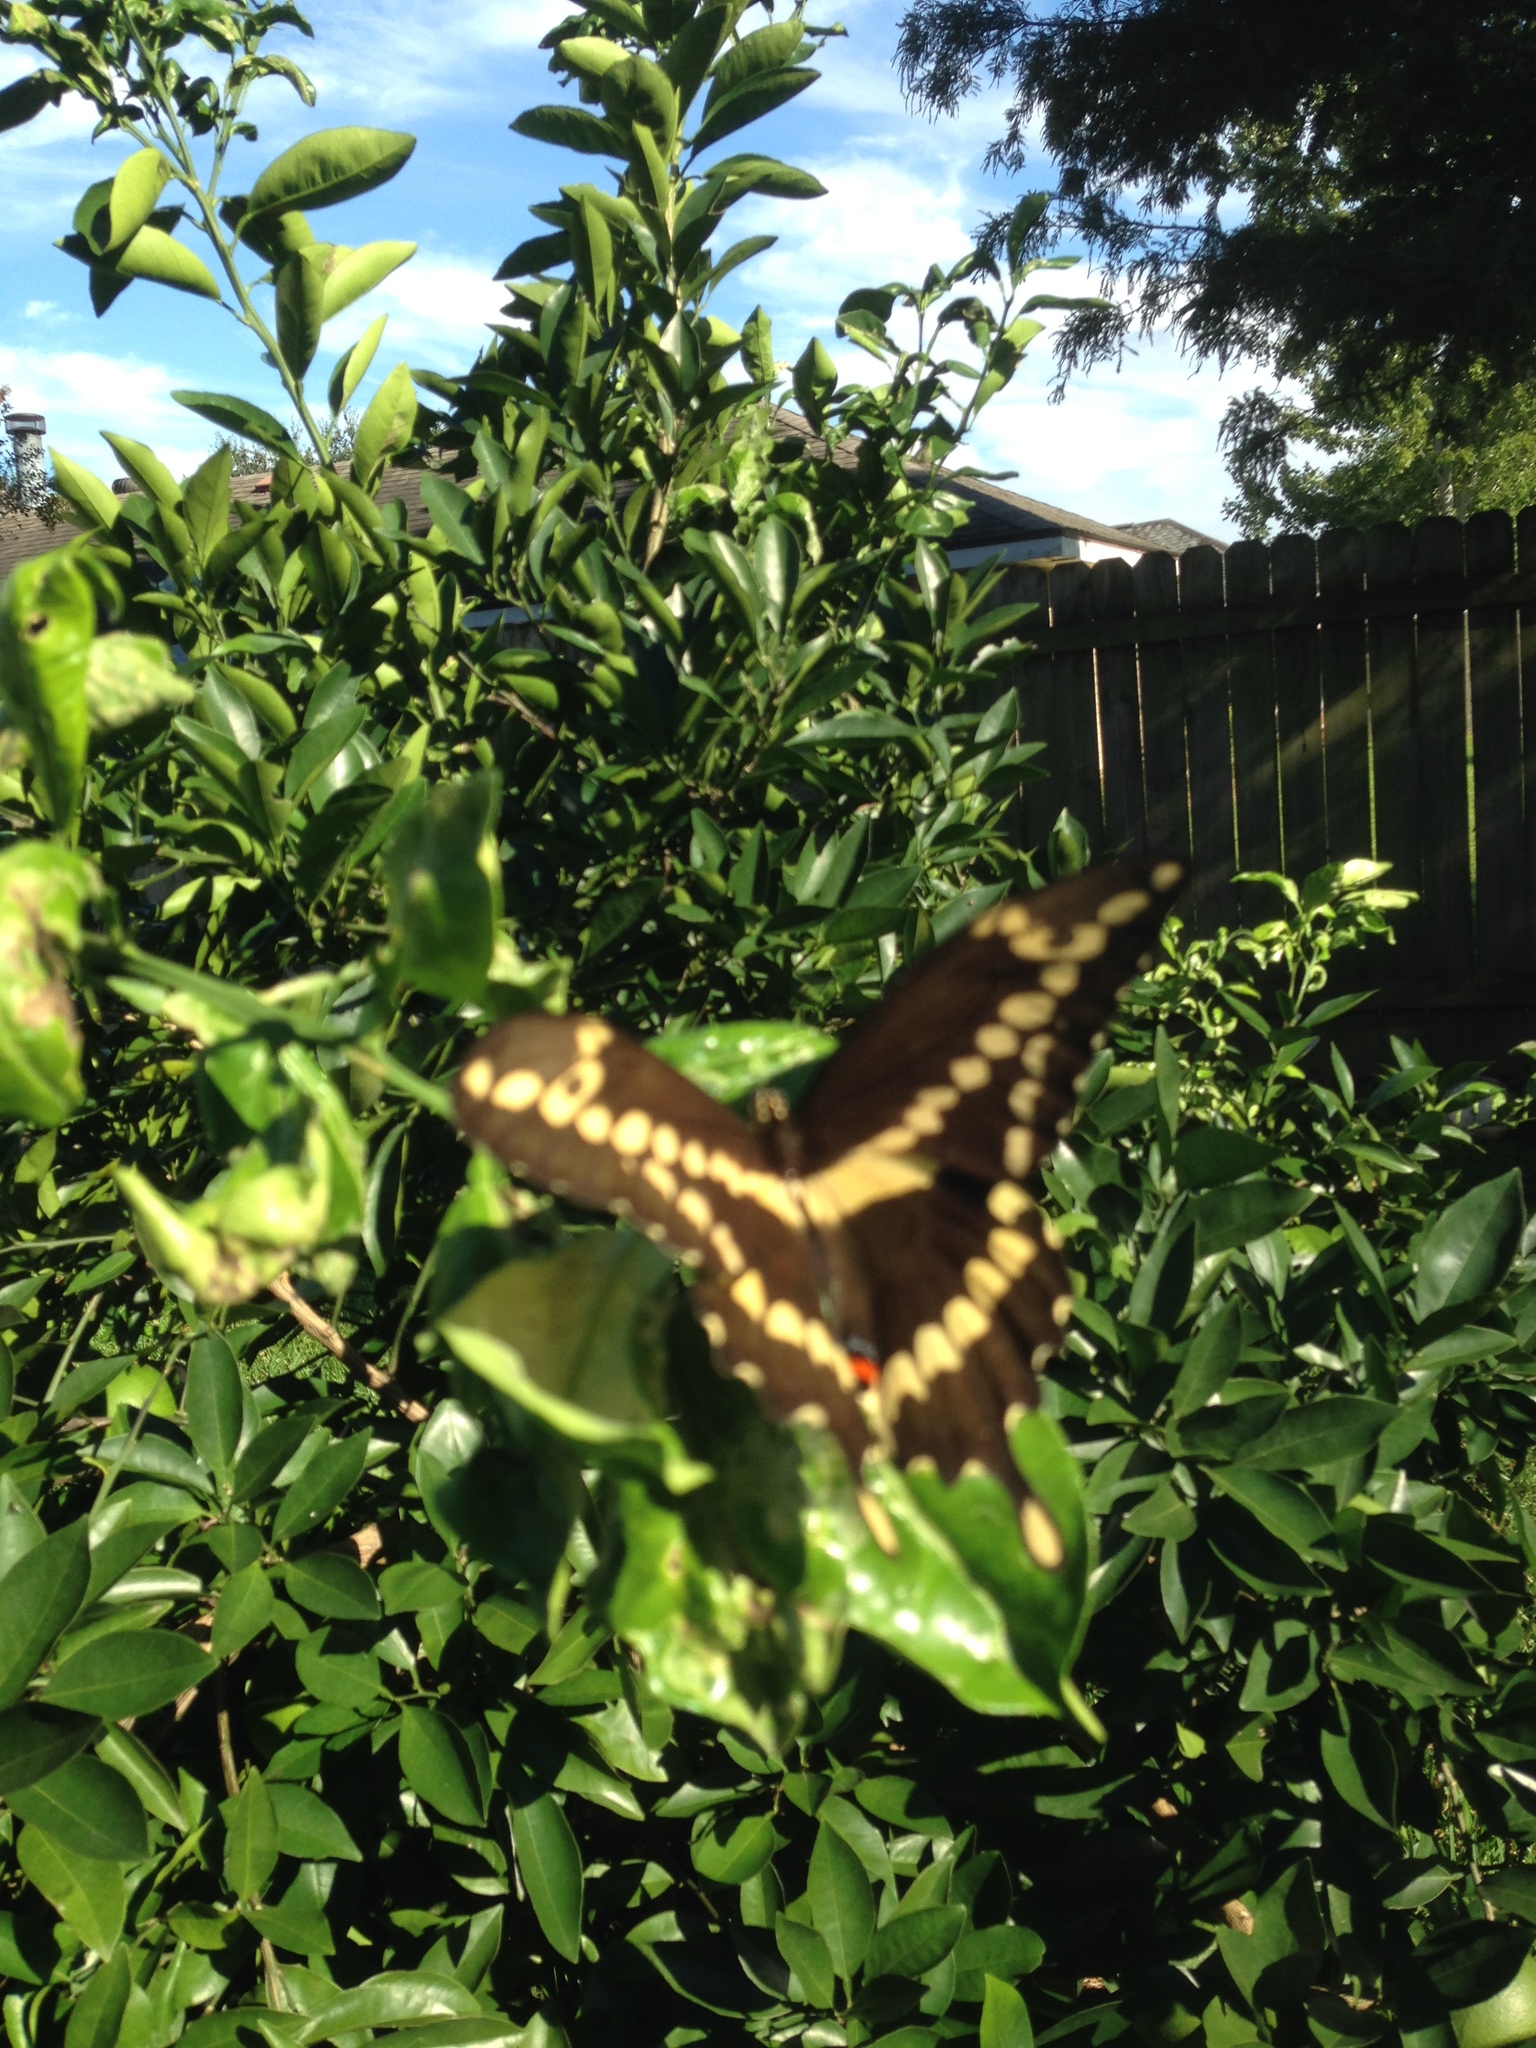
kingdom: Animalia
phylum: Arthropoda
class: Insecta
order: Lepidoptera
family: Papilionidae
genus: Papilio
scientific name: Papilio cresphontes
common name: Giant swallowtail
